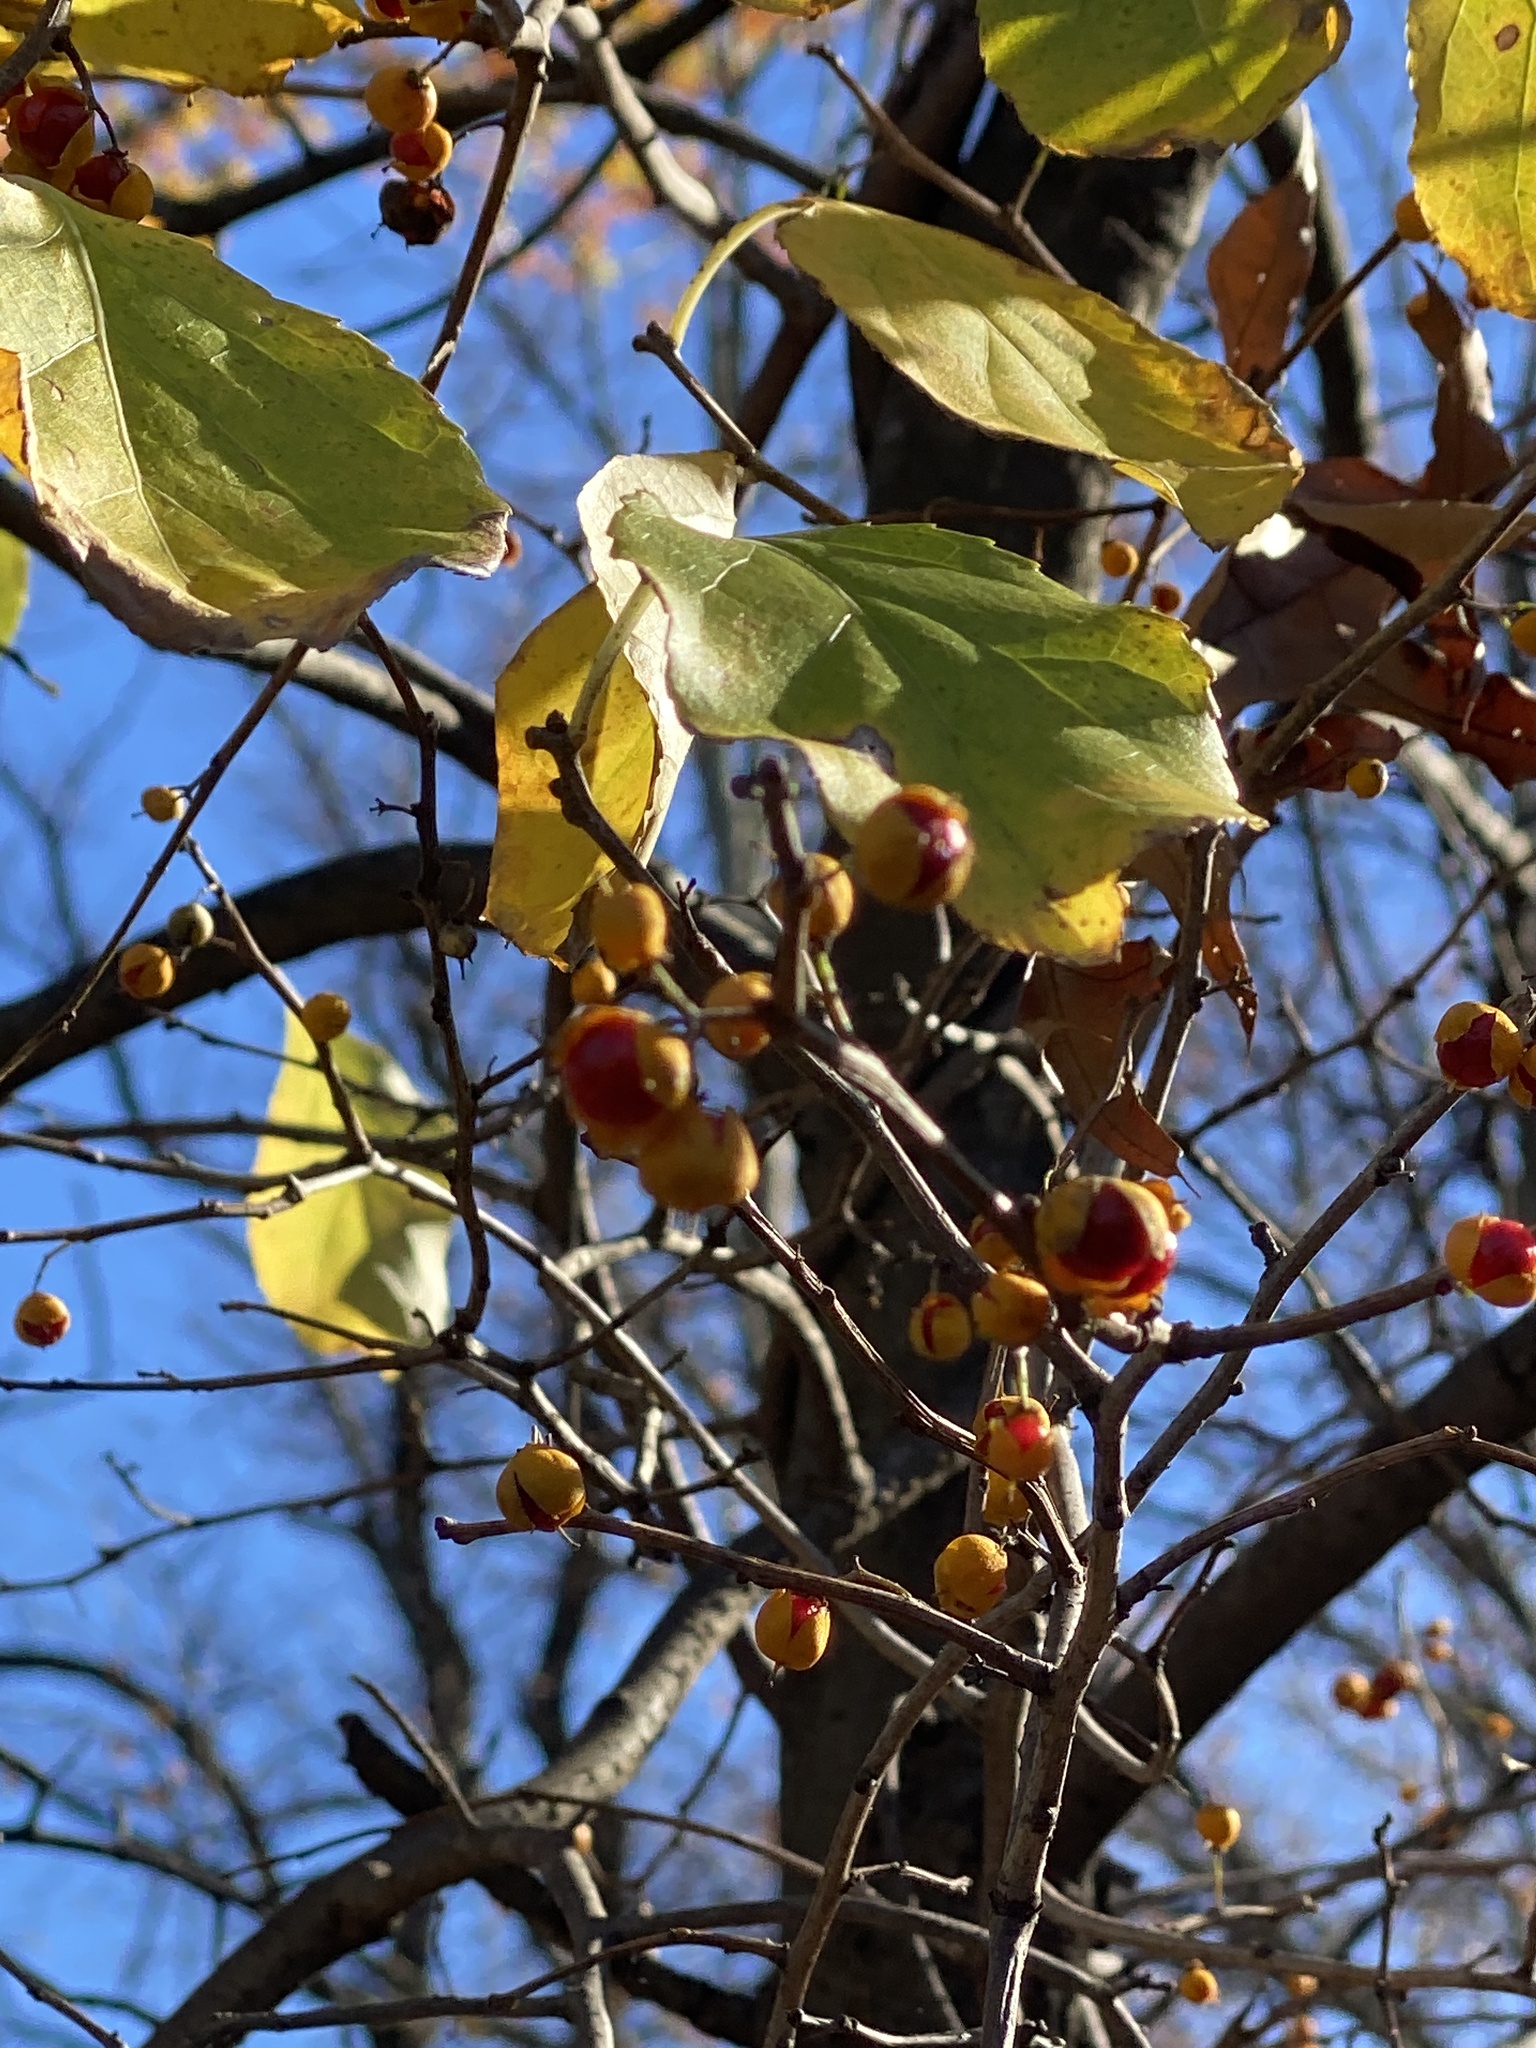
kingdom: Plantae
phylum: Tracheophyta
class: Magnoliopsida
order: Celastrales
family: Celastraceae
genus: Celastrus
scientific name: Celastrus orbiculatus
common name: Oriental bittersweet
